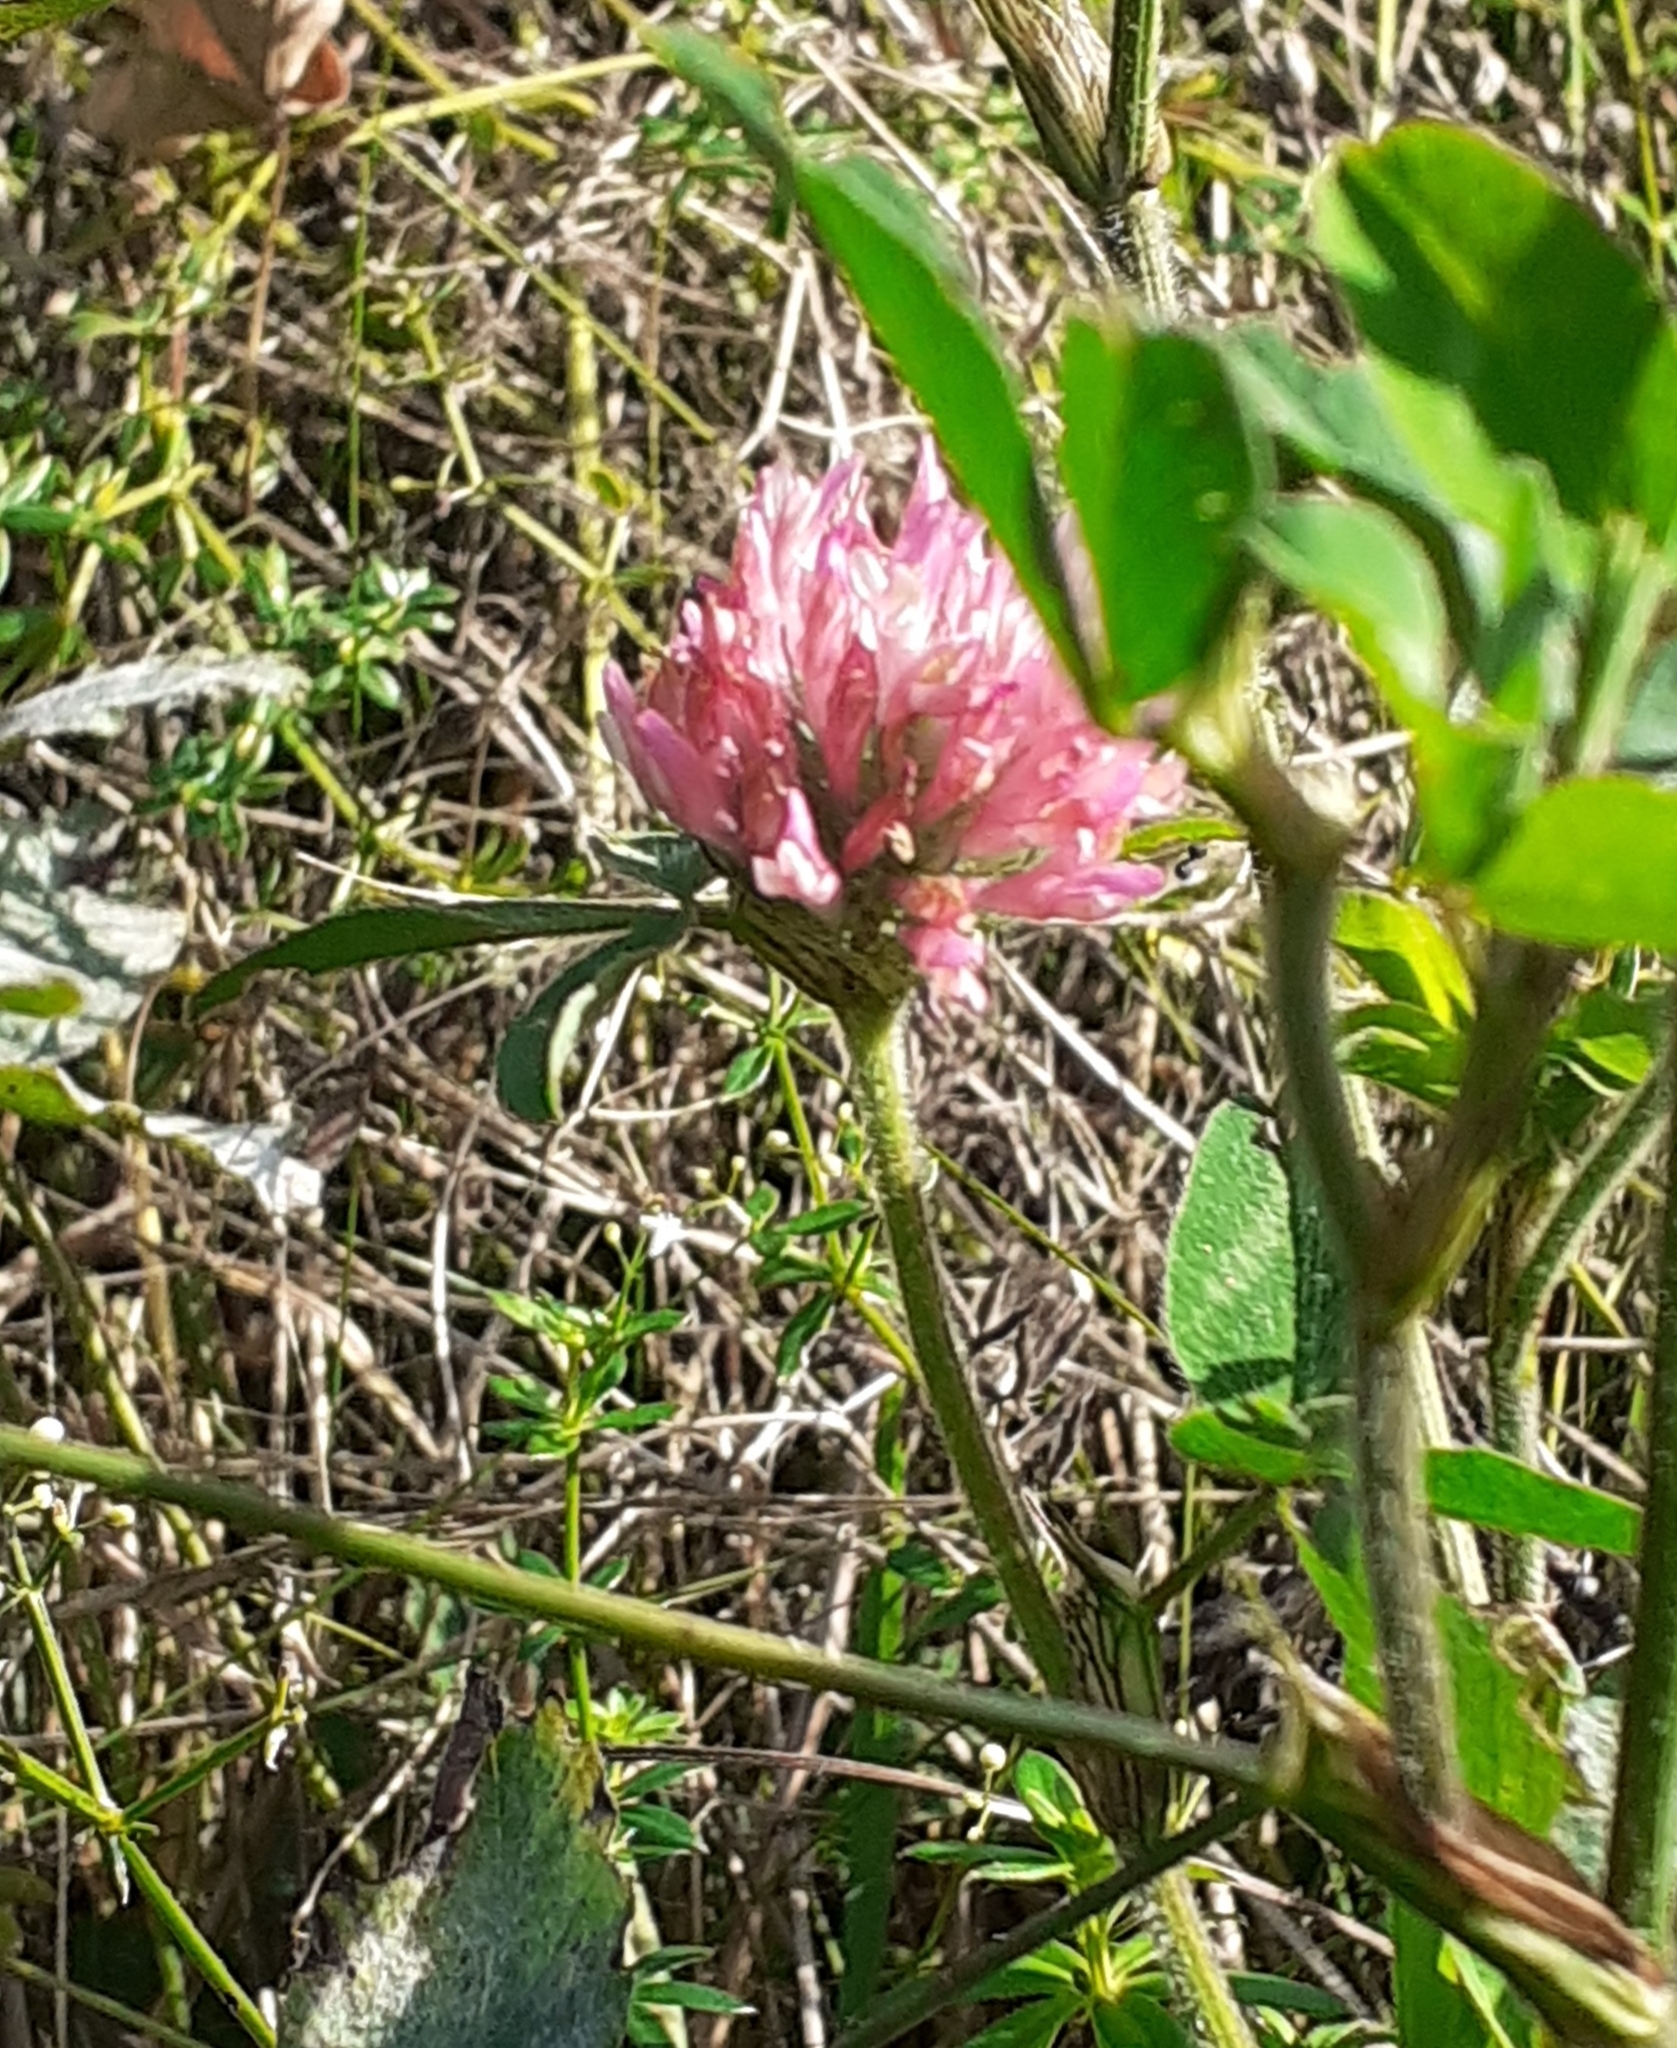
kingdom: Plantae
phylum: Tracheophyta
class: Magnoliopsida
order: Fabales
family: Fabaceae
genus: Trifolium
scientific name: Trifolium pratense
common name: Red clover
